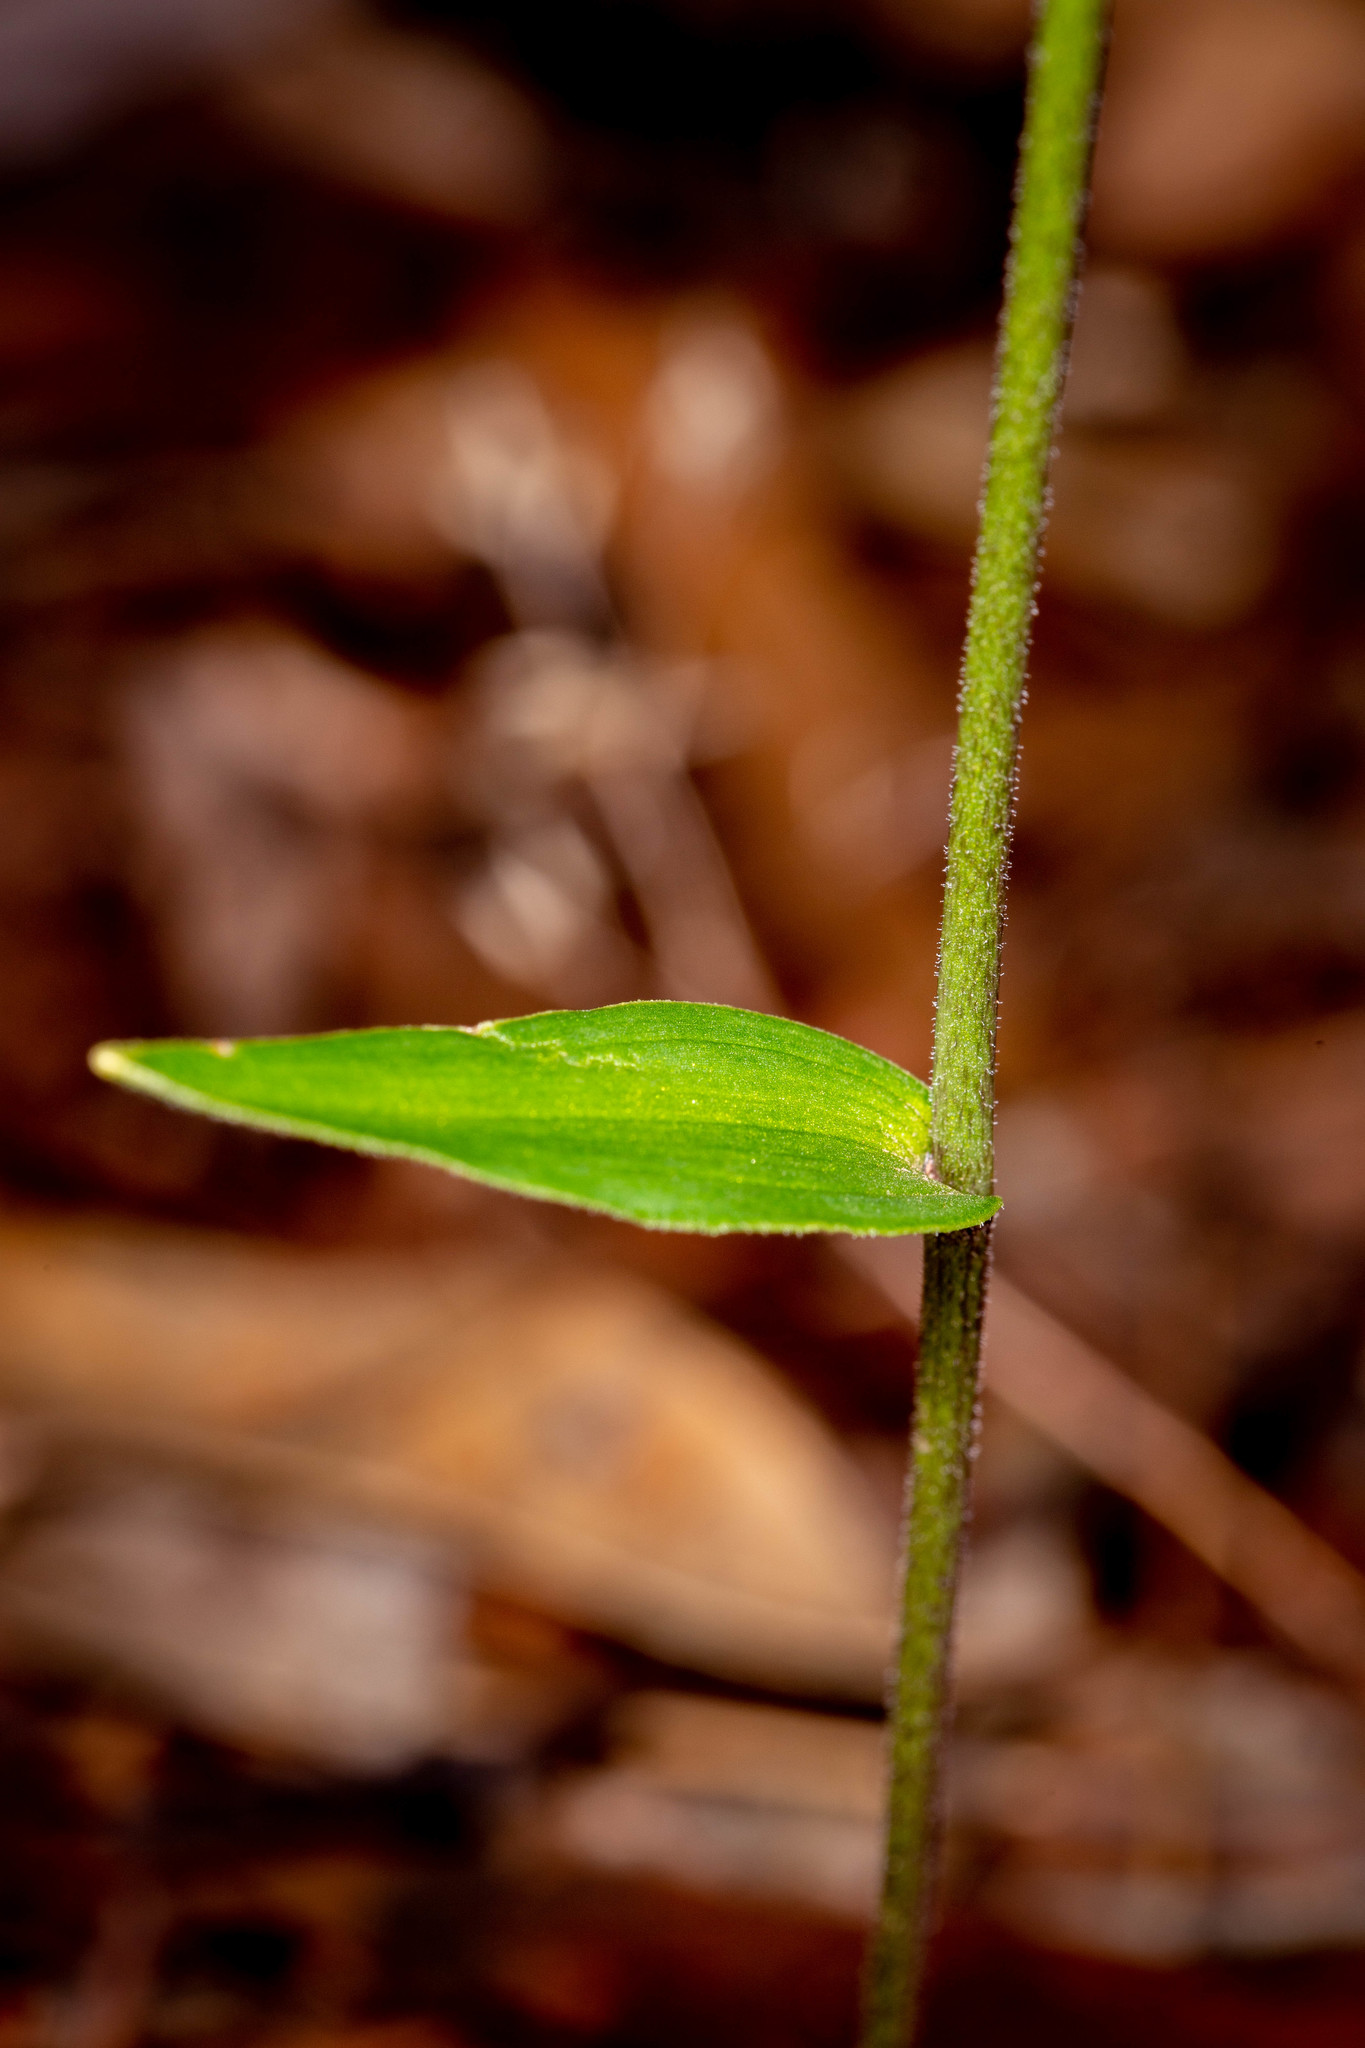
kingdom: Plantae
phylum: Tracheophyta
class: Liliopsida
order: Asparagales
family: Orchidaceae
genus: Eriochilus
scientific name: Eriochilus dilatatus
